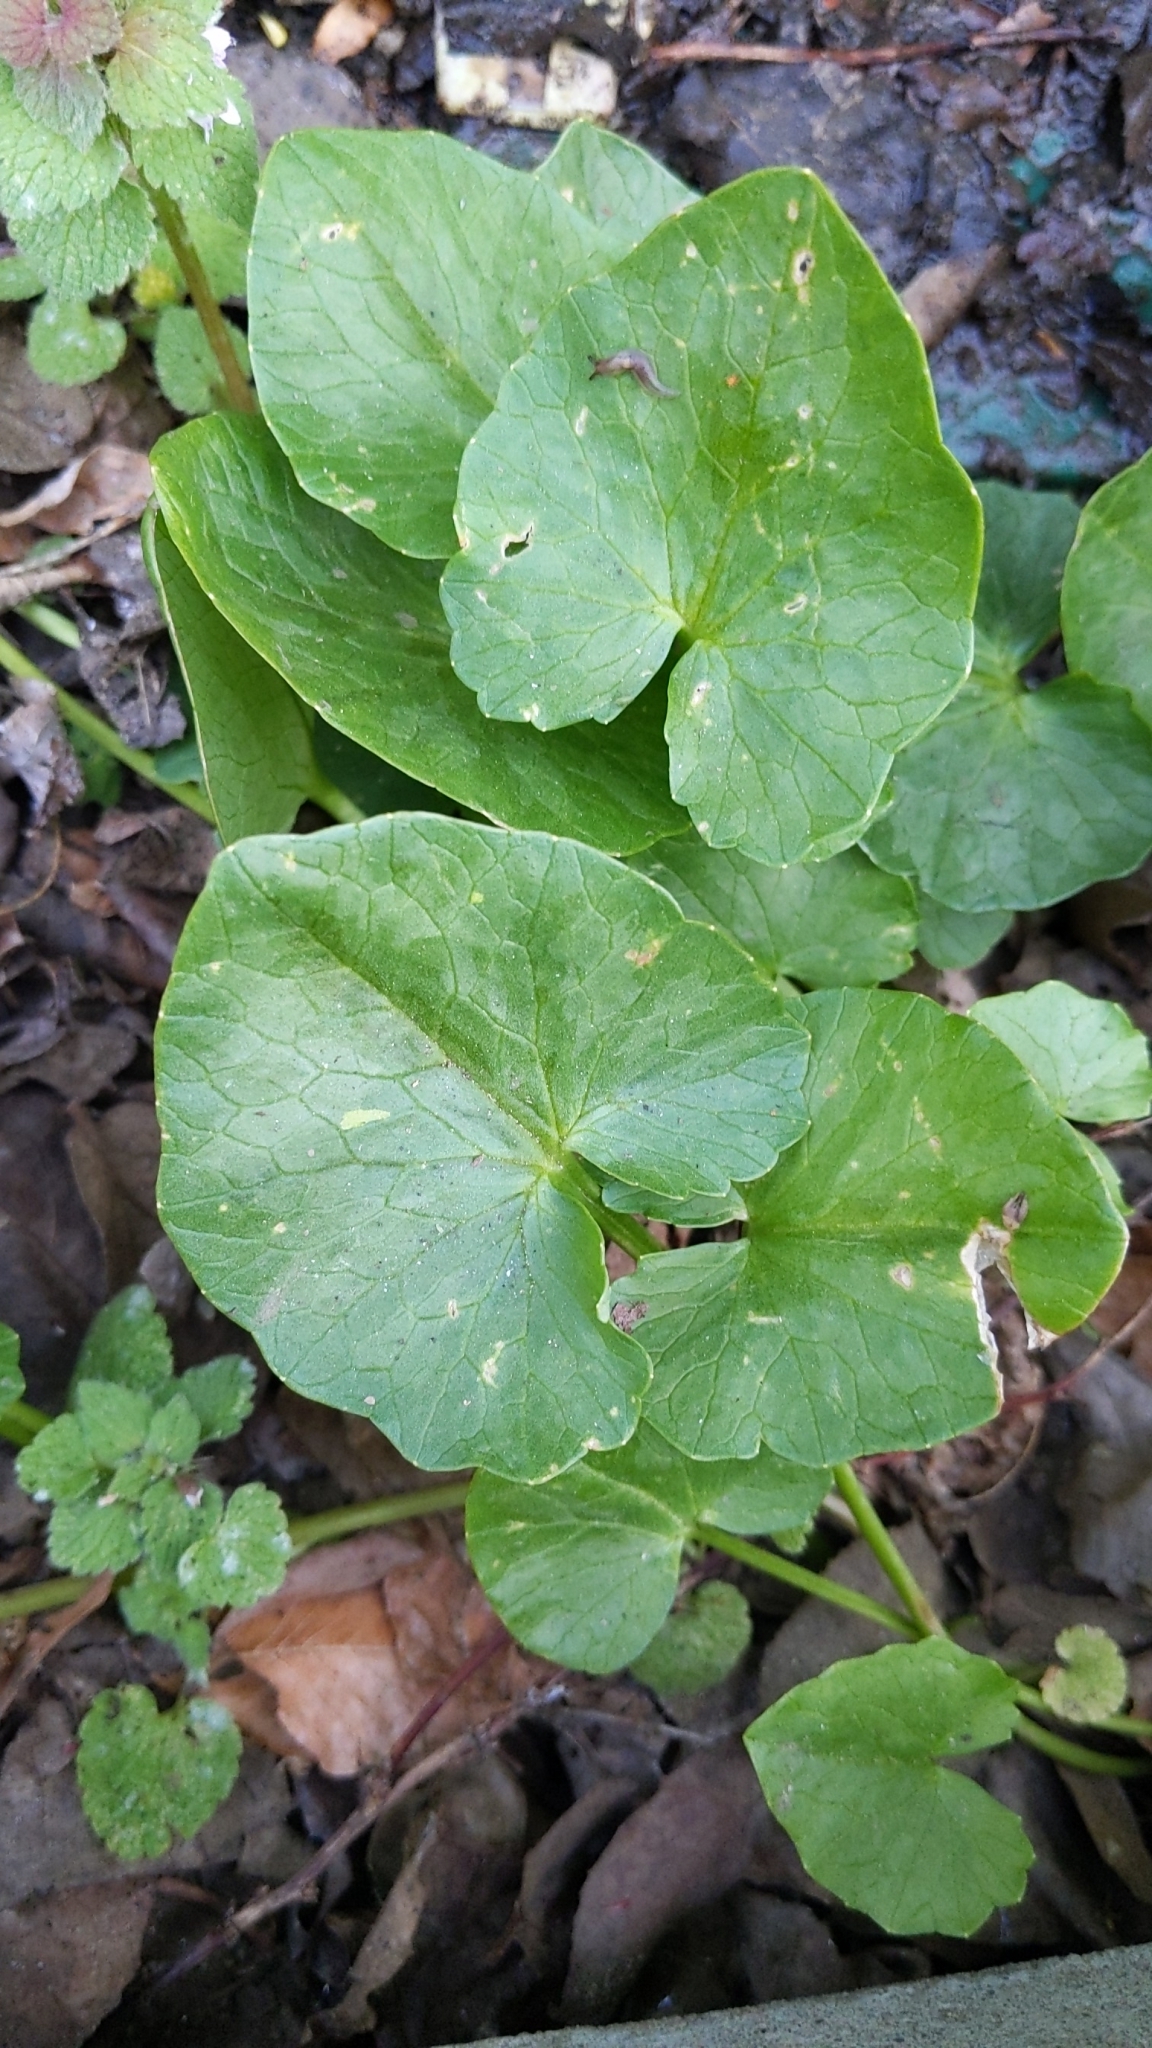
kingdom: Plantae
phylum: Tracheophyta
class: Magnoliopsida
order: Ranunculales
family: Ranunculaceae
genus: Ficaria
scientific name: Ficaria verna
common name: Lesser celandine
